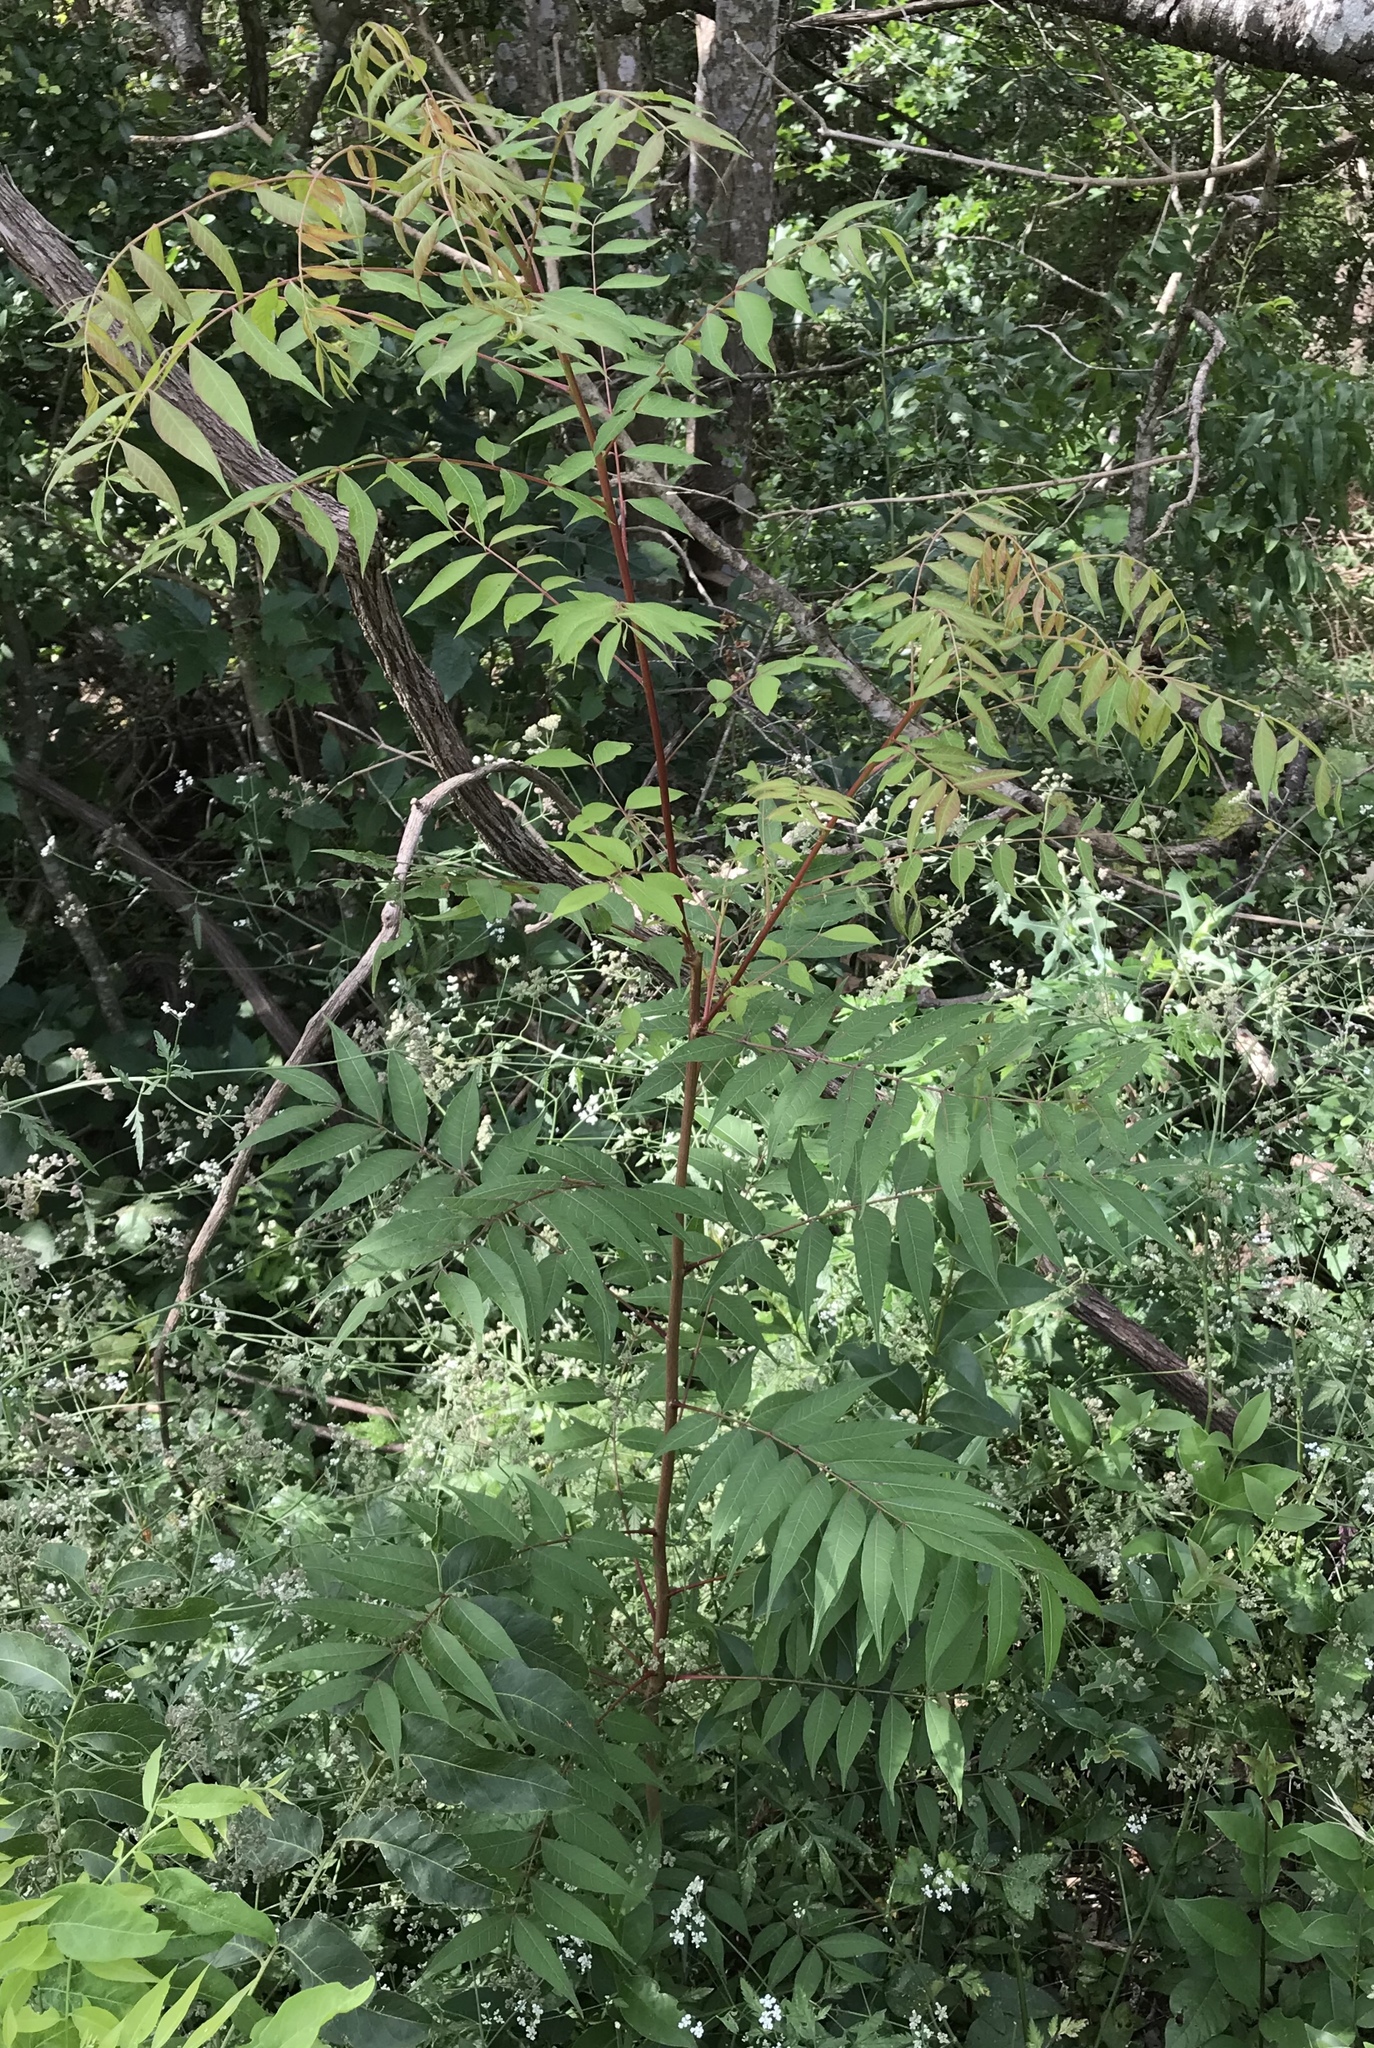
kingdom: Plantae
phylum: Tracheophyta
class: Magnoliopsida
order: Sapindales
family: Anacardiaceae
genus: Pistacia
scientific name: Pistacia chinensis
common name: Chinese pistache
